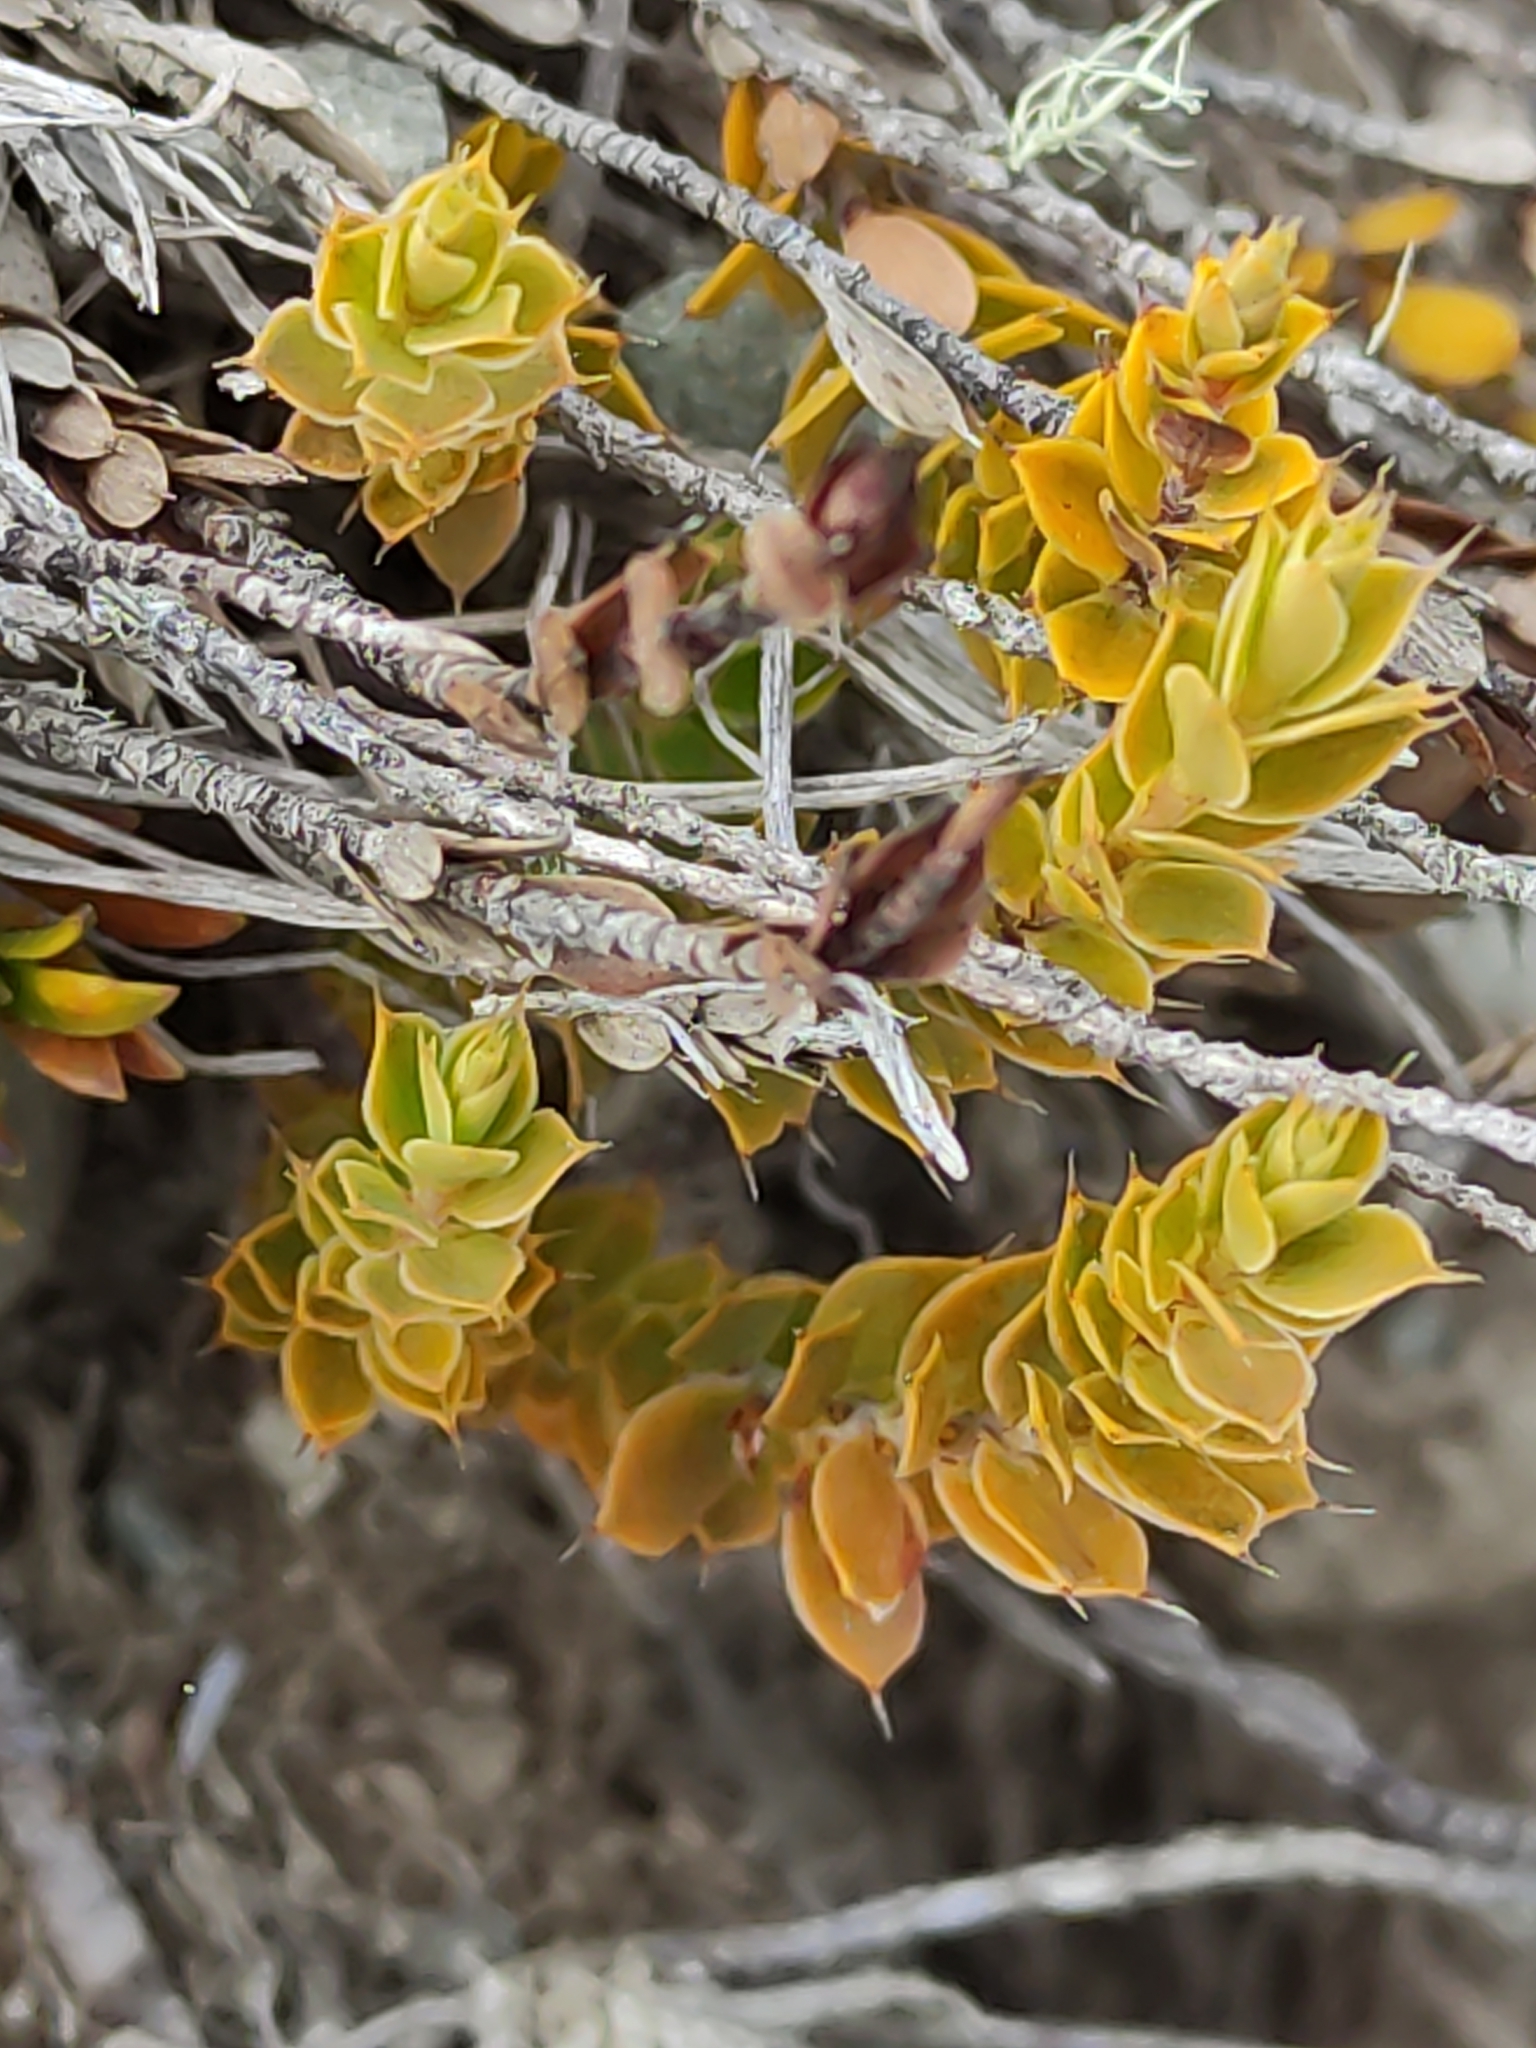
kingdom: Plantae
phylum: Tracheophyta
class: Magnoliopsida
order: Ericales
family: Ericaceae
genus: Styphelia
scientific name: Styphelia nesophila
